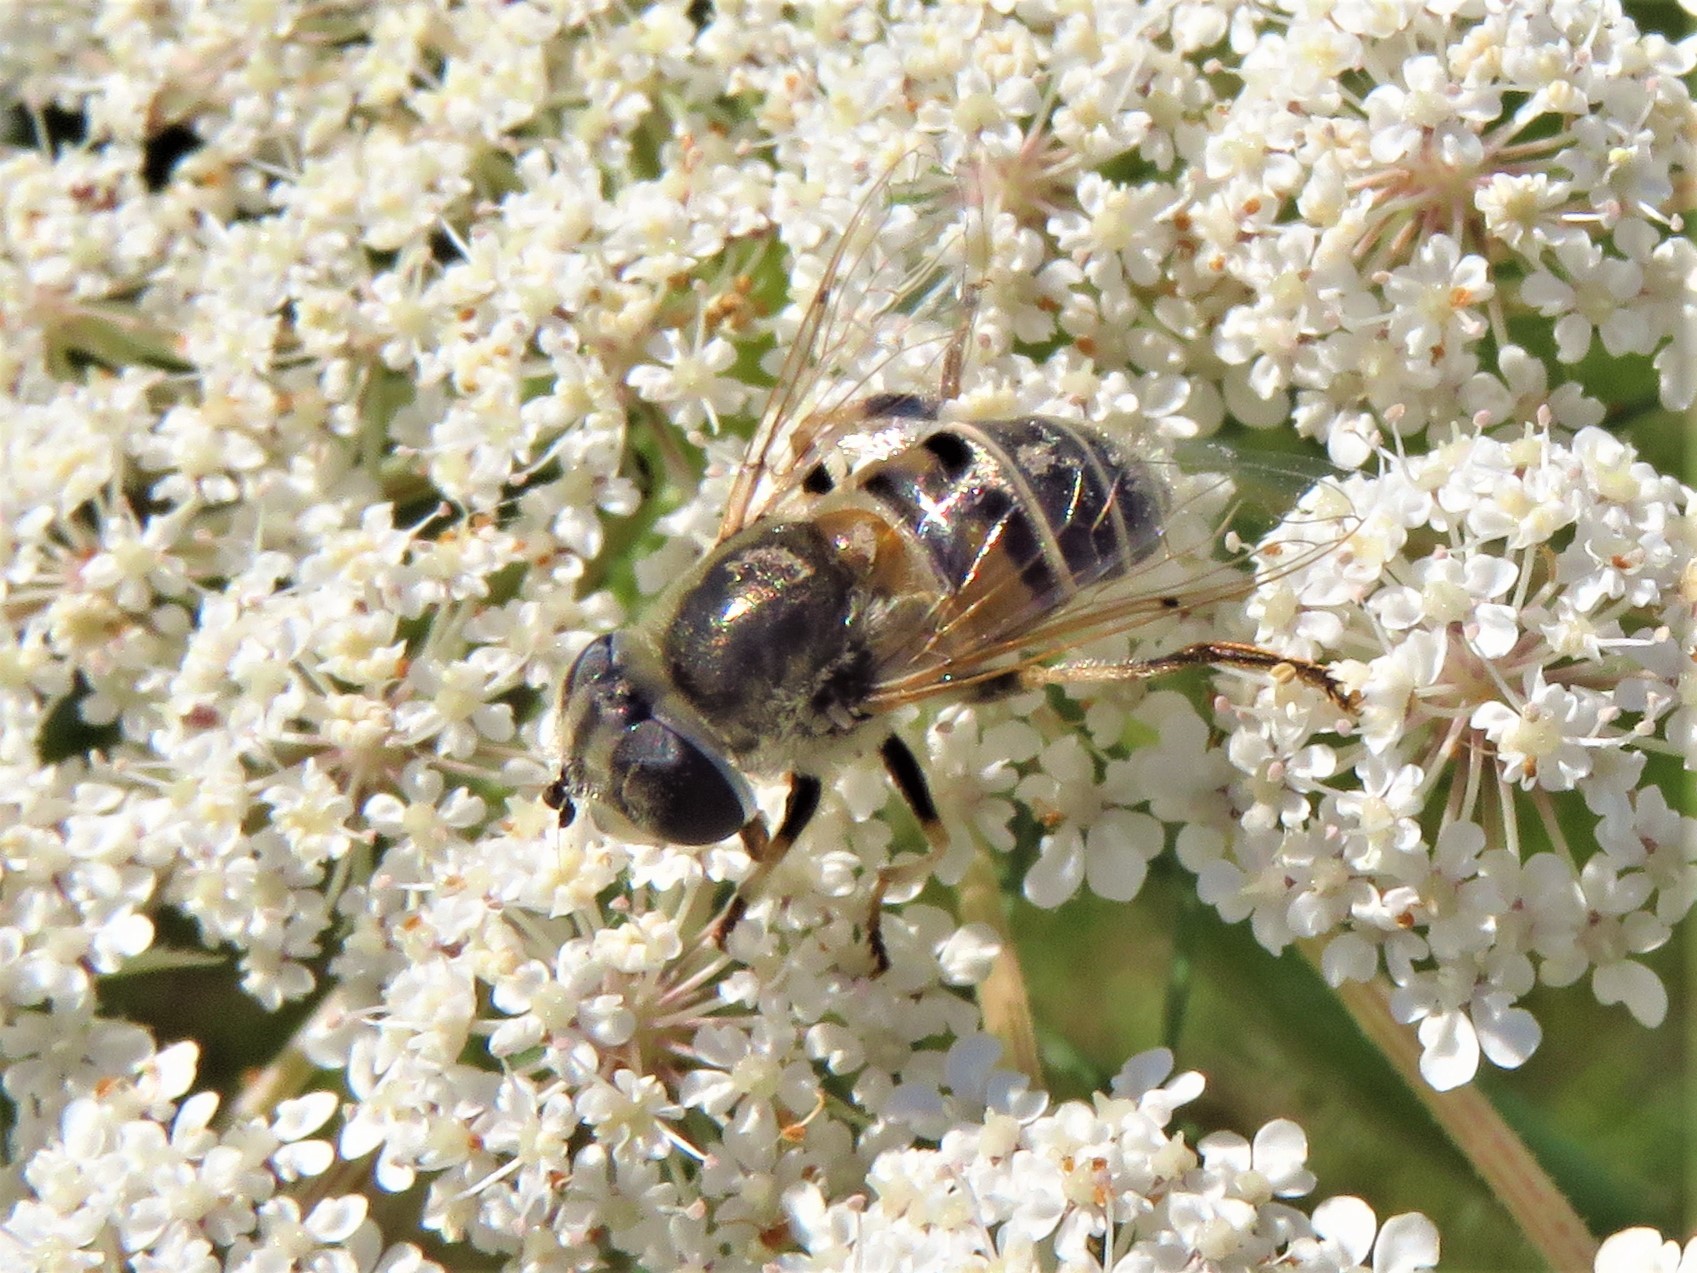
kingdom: Animalia
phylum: Arthropoda
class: Insecta
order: Diptera
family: Syrphidae
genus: Eristalis
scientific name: Eristalis stipator
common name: Yellow-shouldered drone fly
